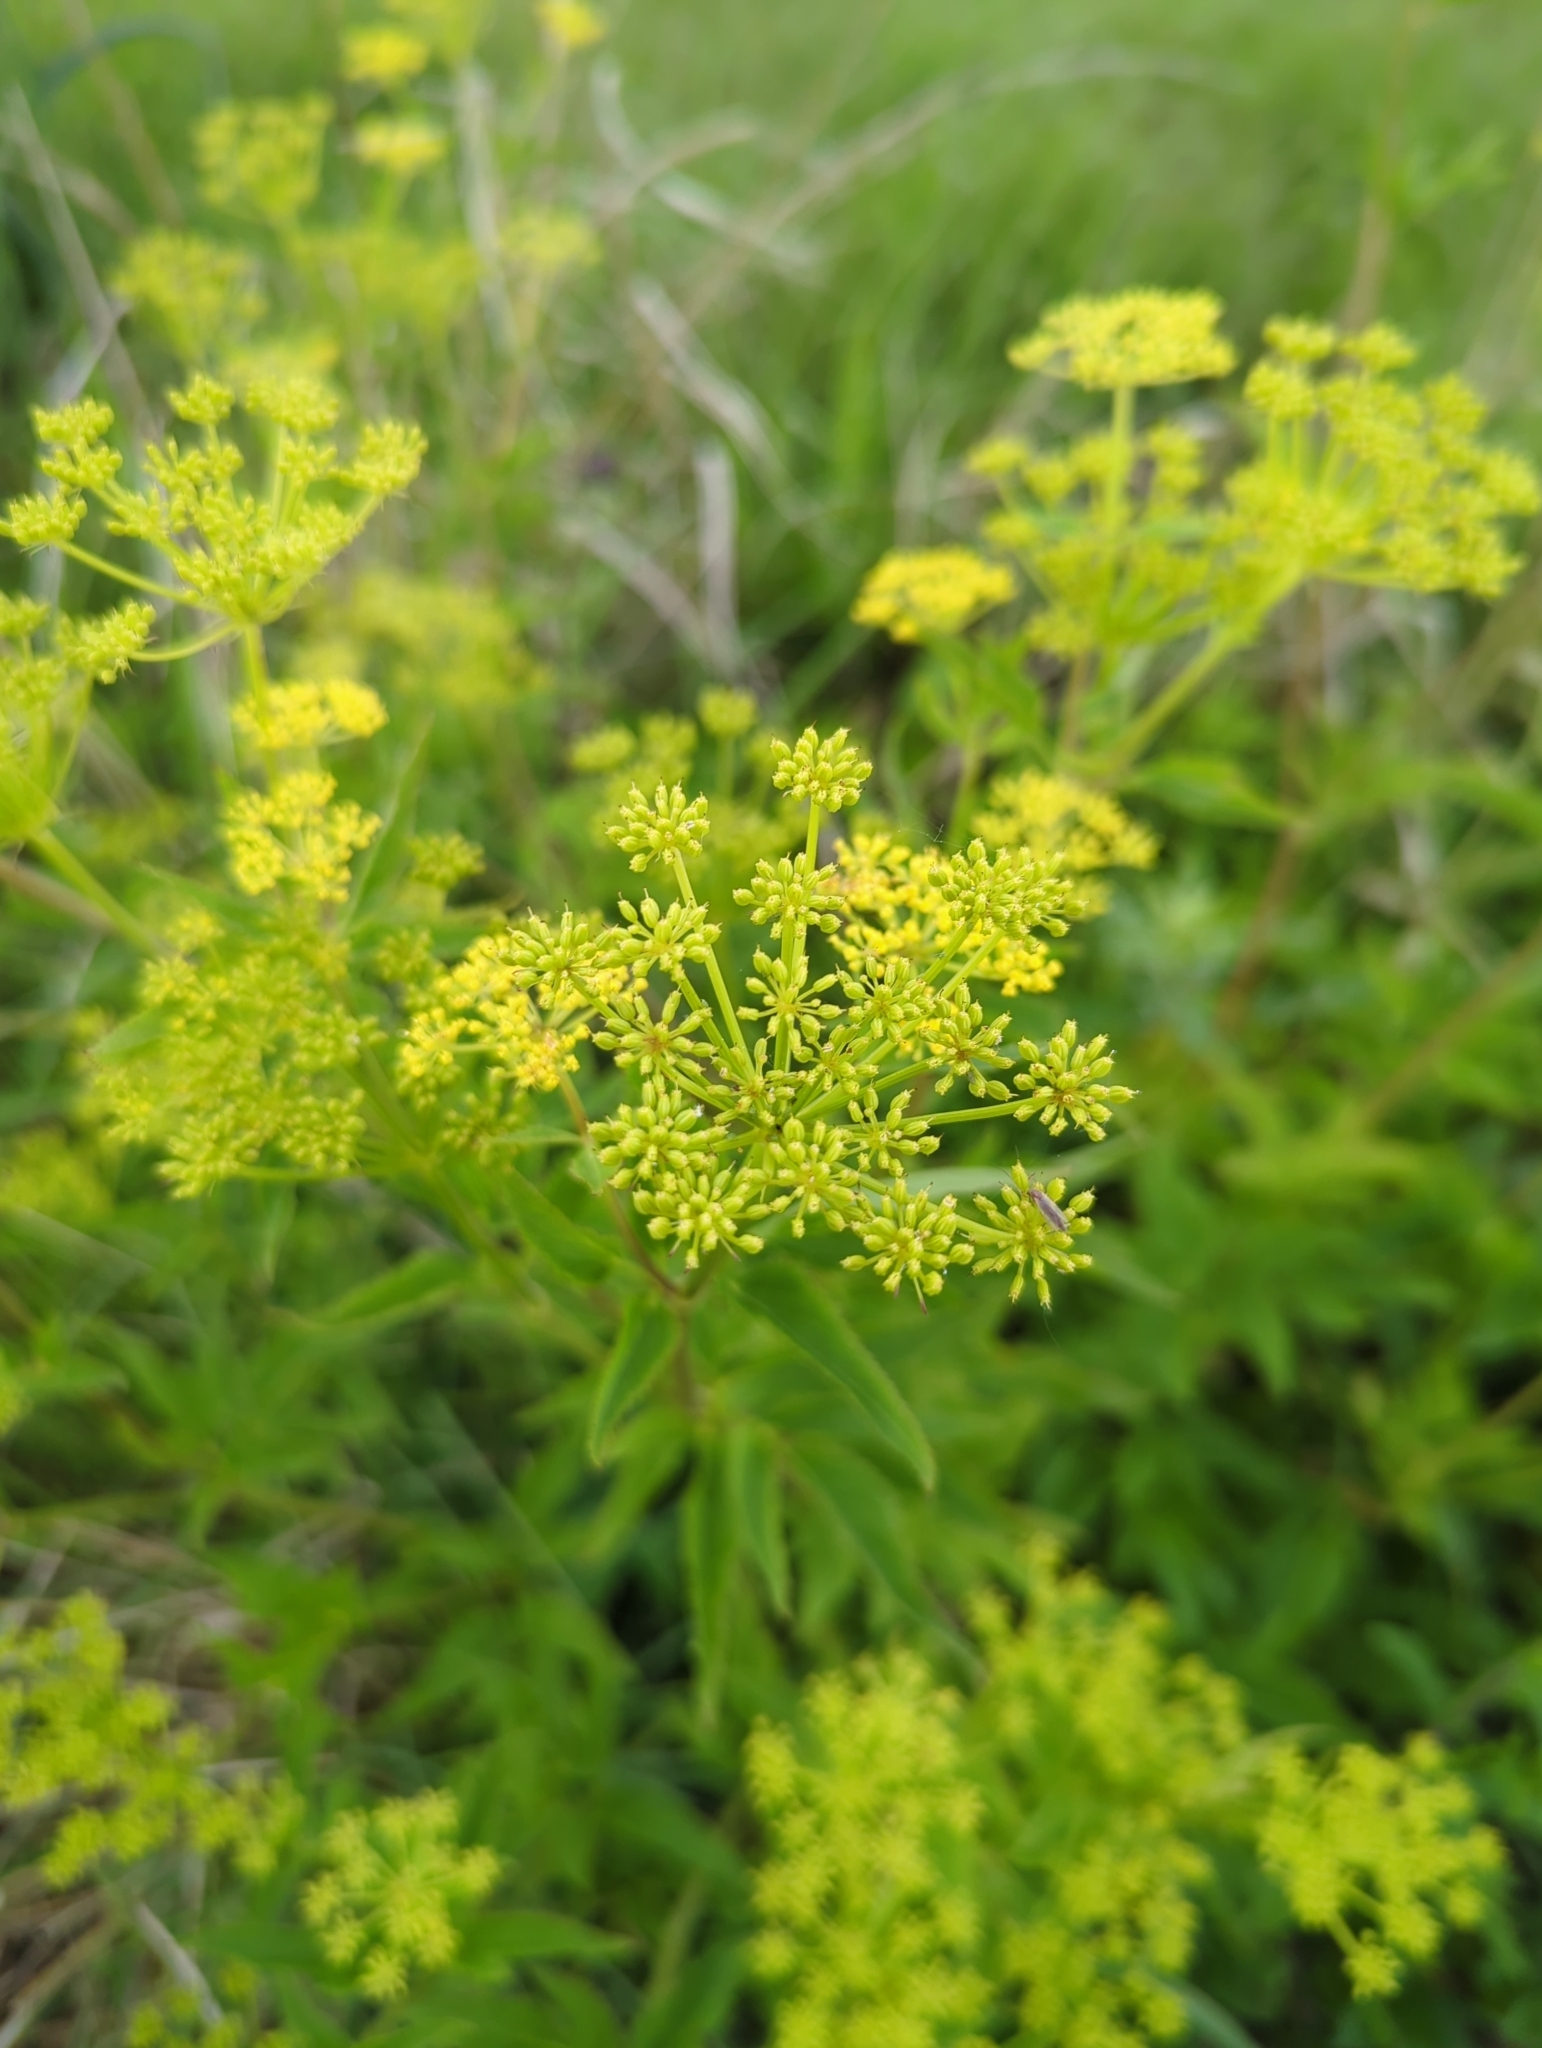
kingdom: Plantae
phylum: Tracheophyta
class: Magnoliopsida
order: Apiales
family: Apiaceae
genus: Zizia
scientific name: Zizia aurea
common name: Golden alexanders
